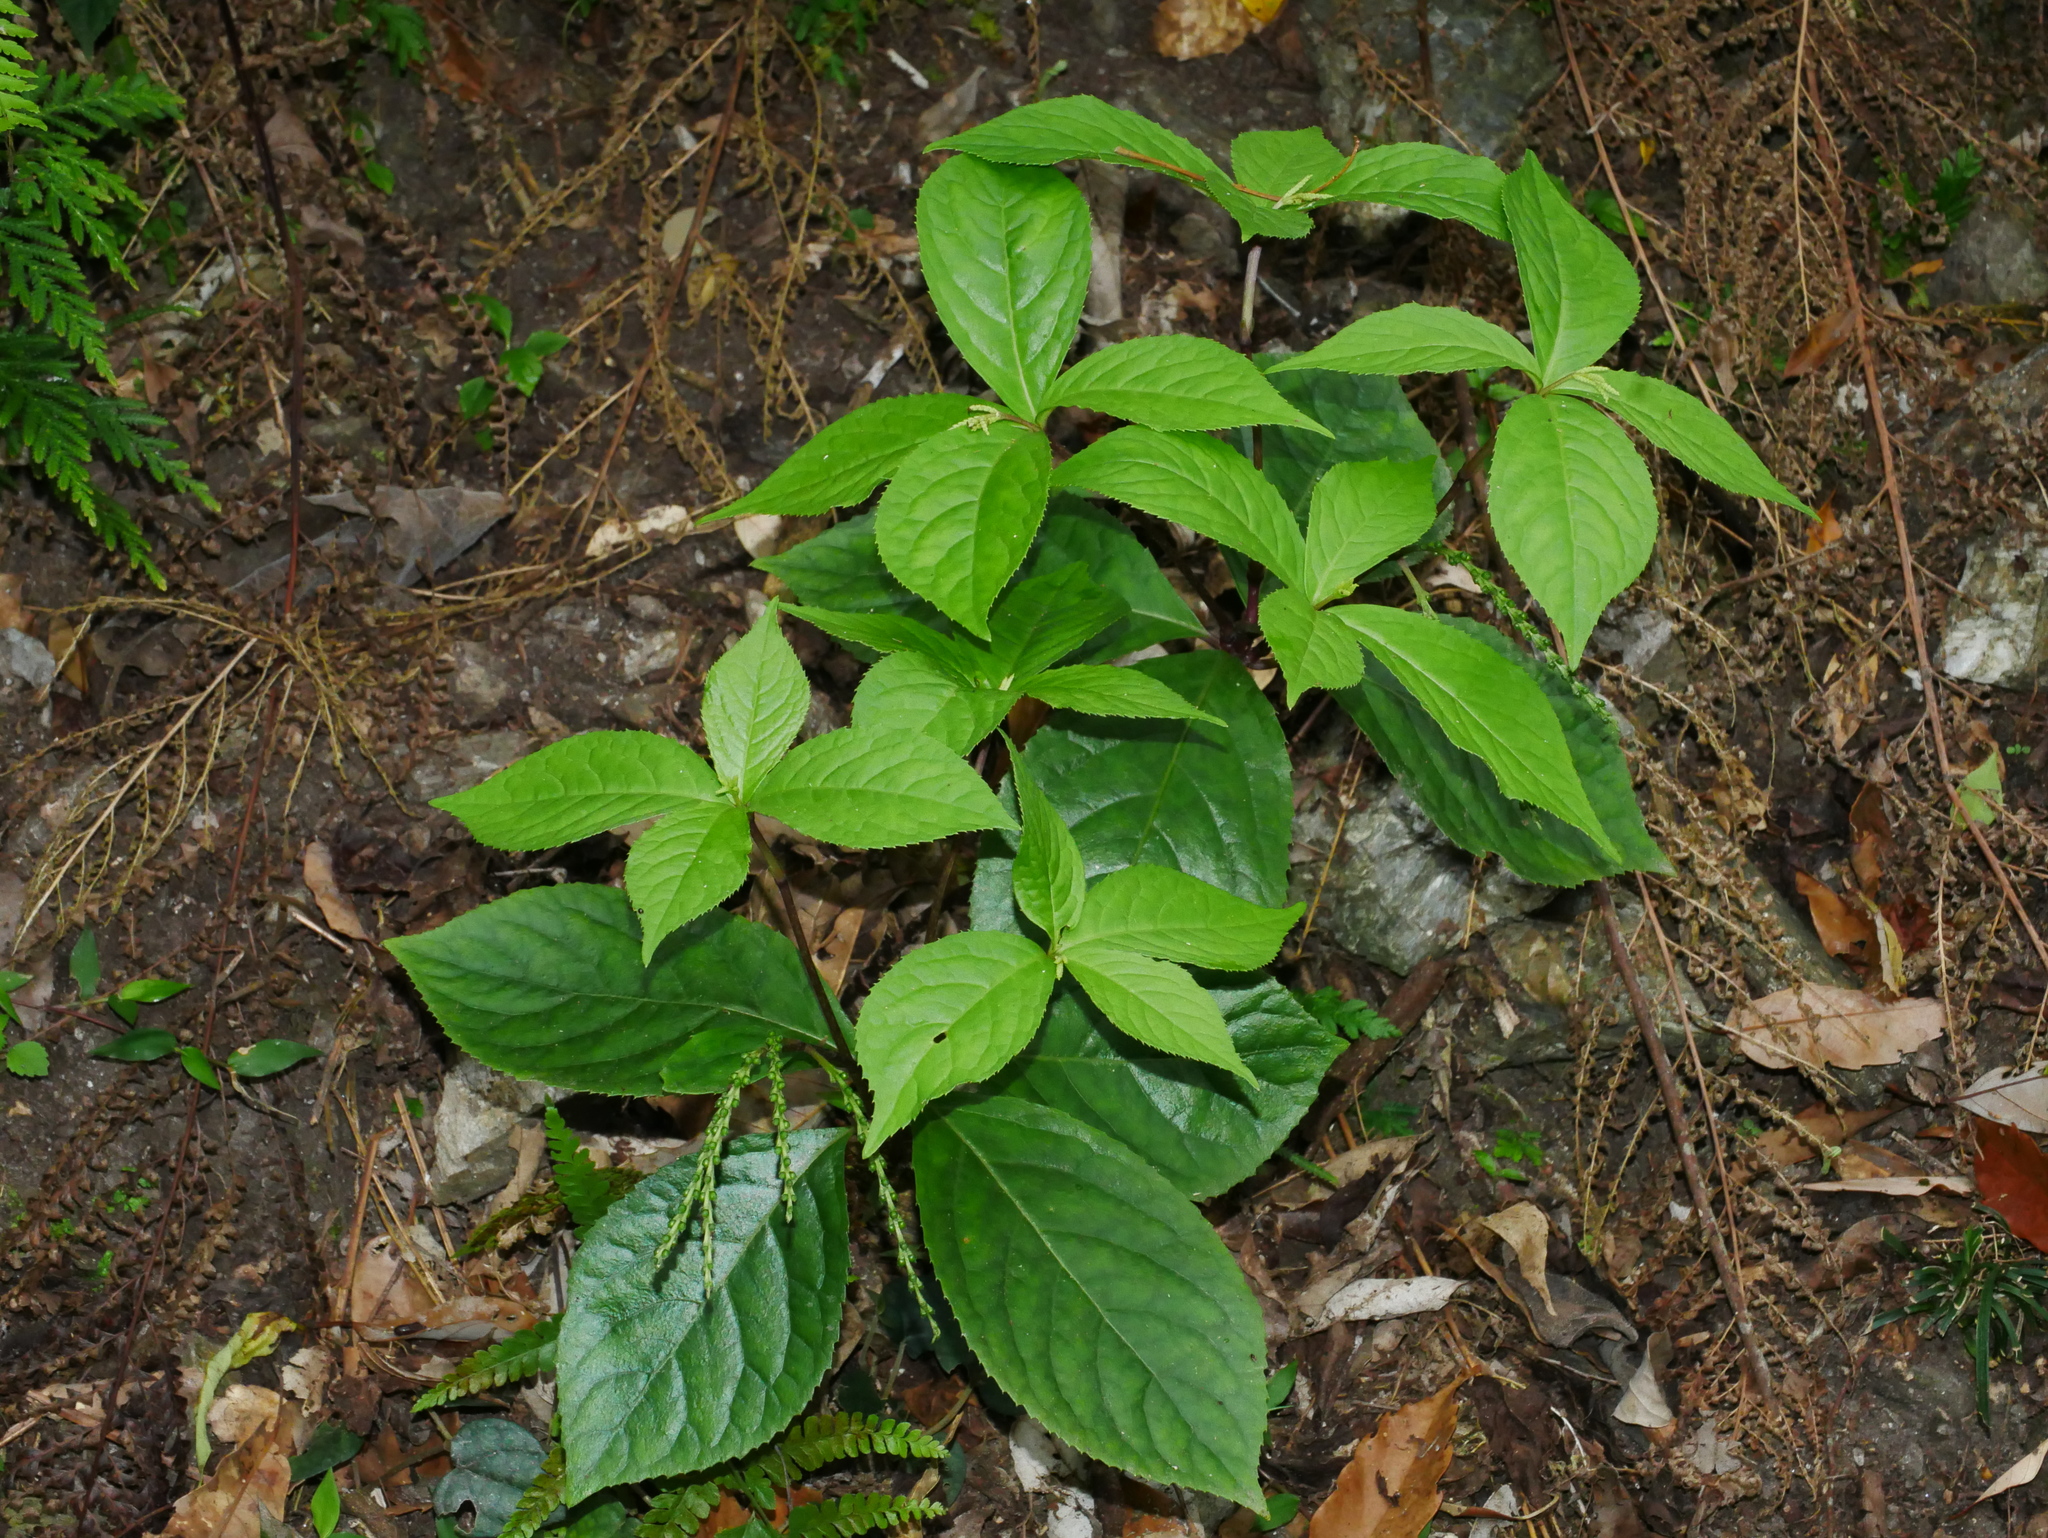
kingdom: Plantae
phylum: Tracheophyta
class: Magnoliopsida
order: Chloranthales
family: Chloranthaceae
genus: Chloranthus
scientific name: Chloranthus oldhamii
